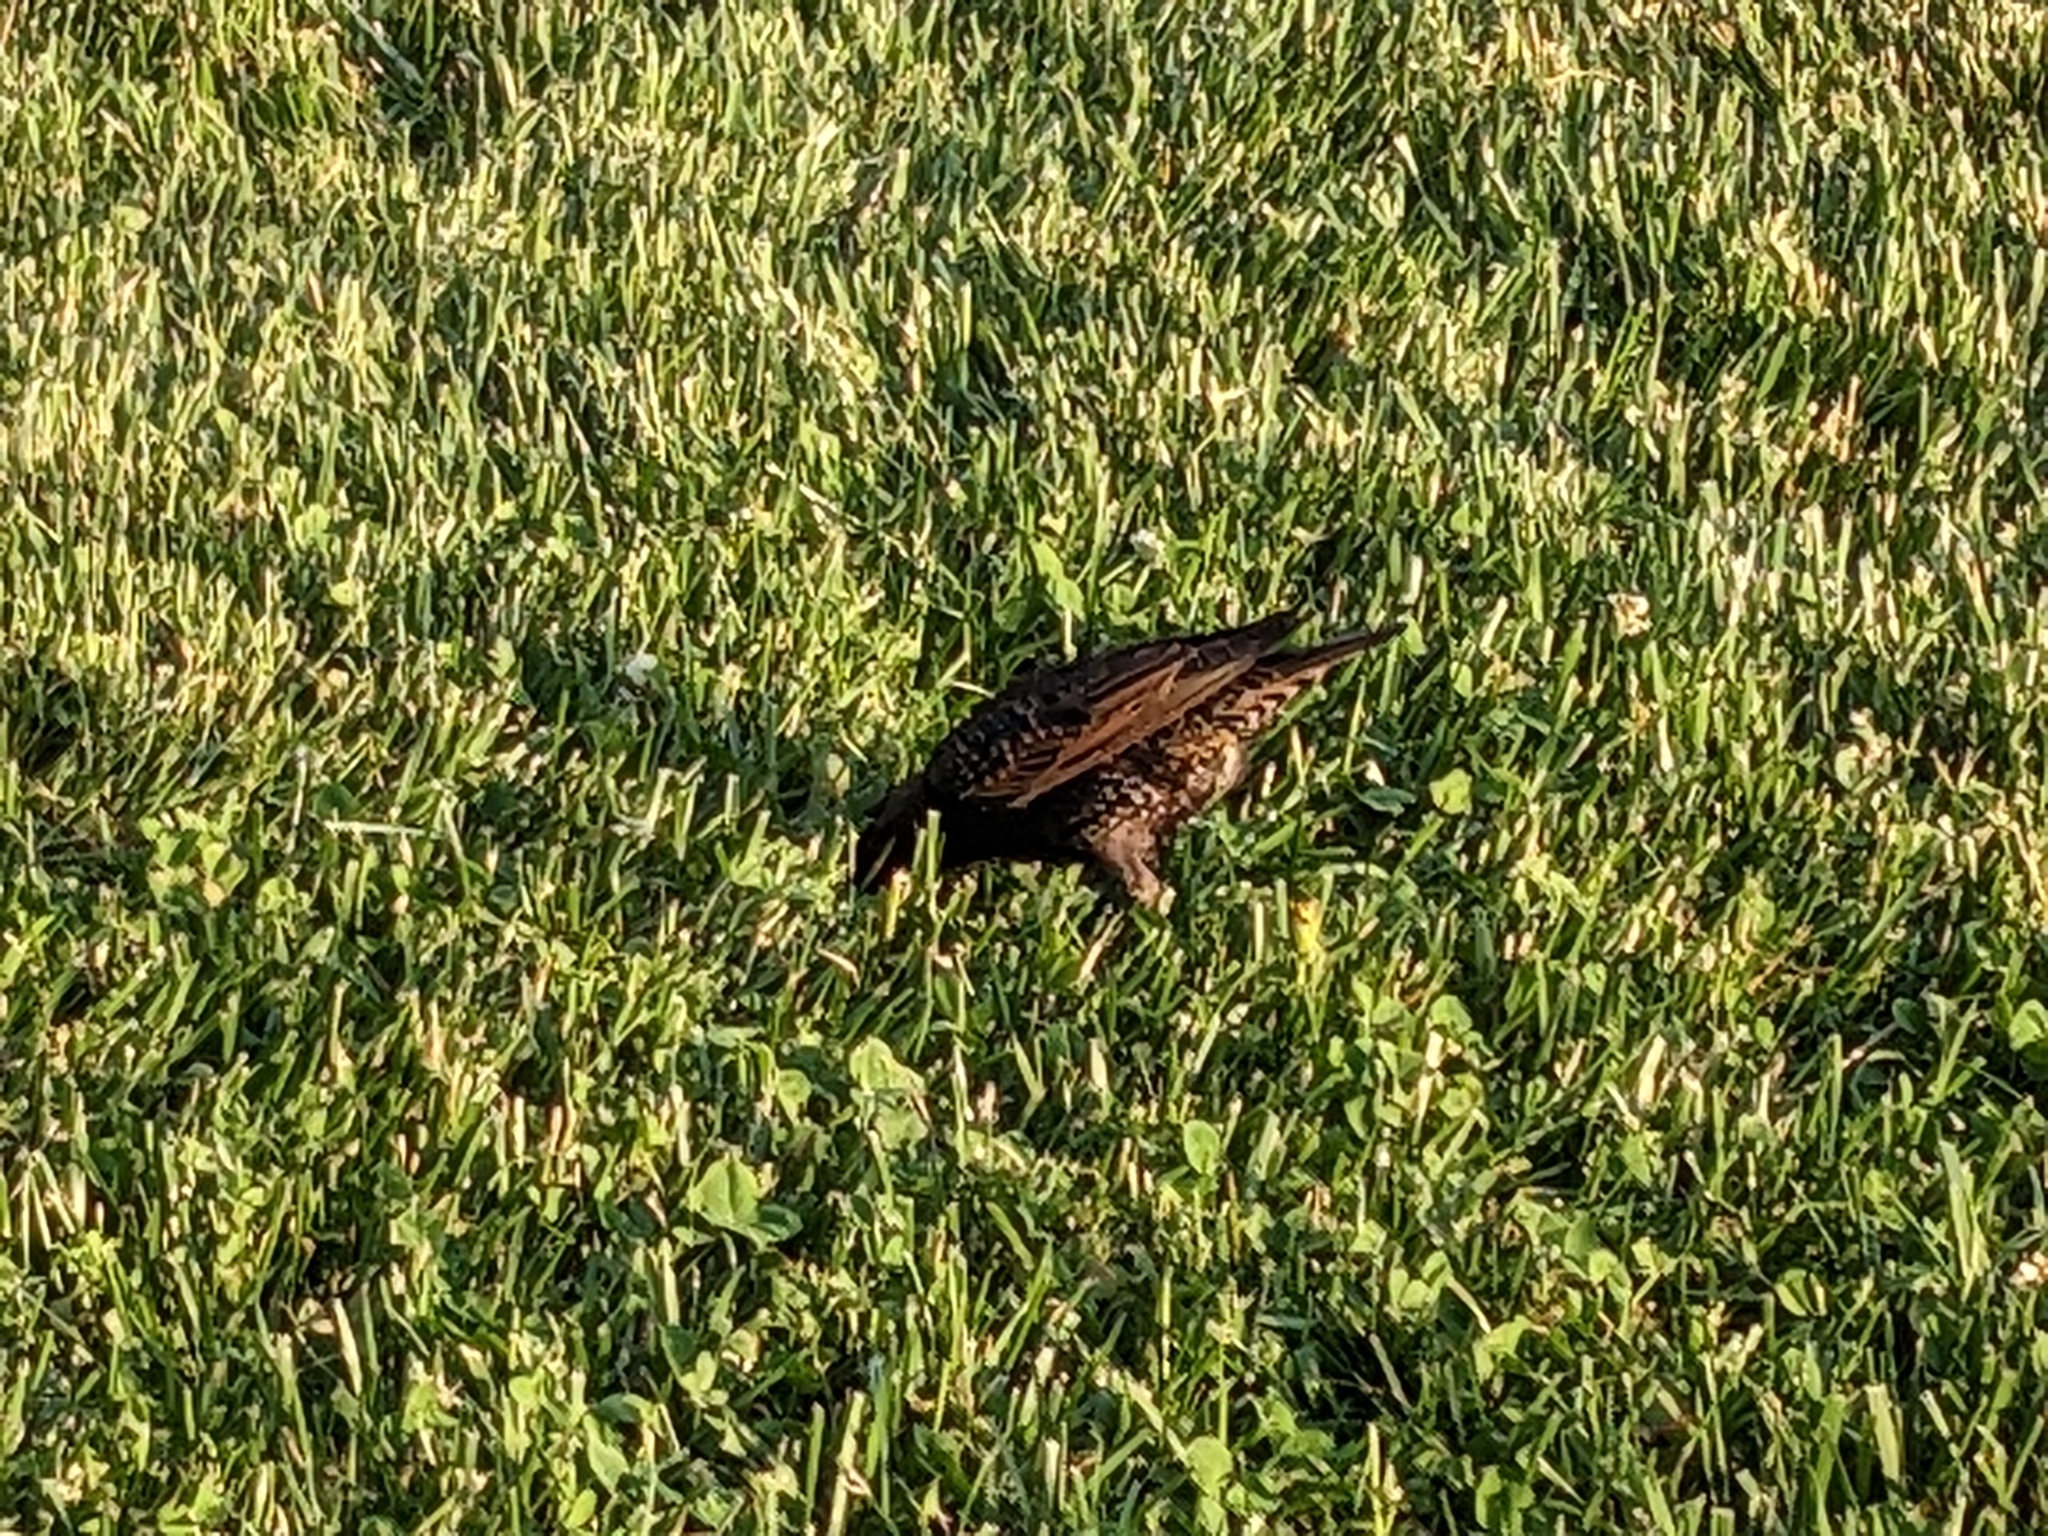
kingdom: Animalia
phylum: Chordata
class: Aves
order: Passeriformes
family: Sturnidae
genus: Sturnus
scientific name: Sturnus vulgaris
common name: Common starling
